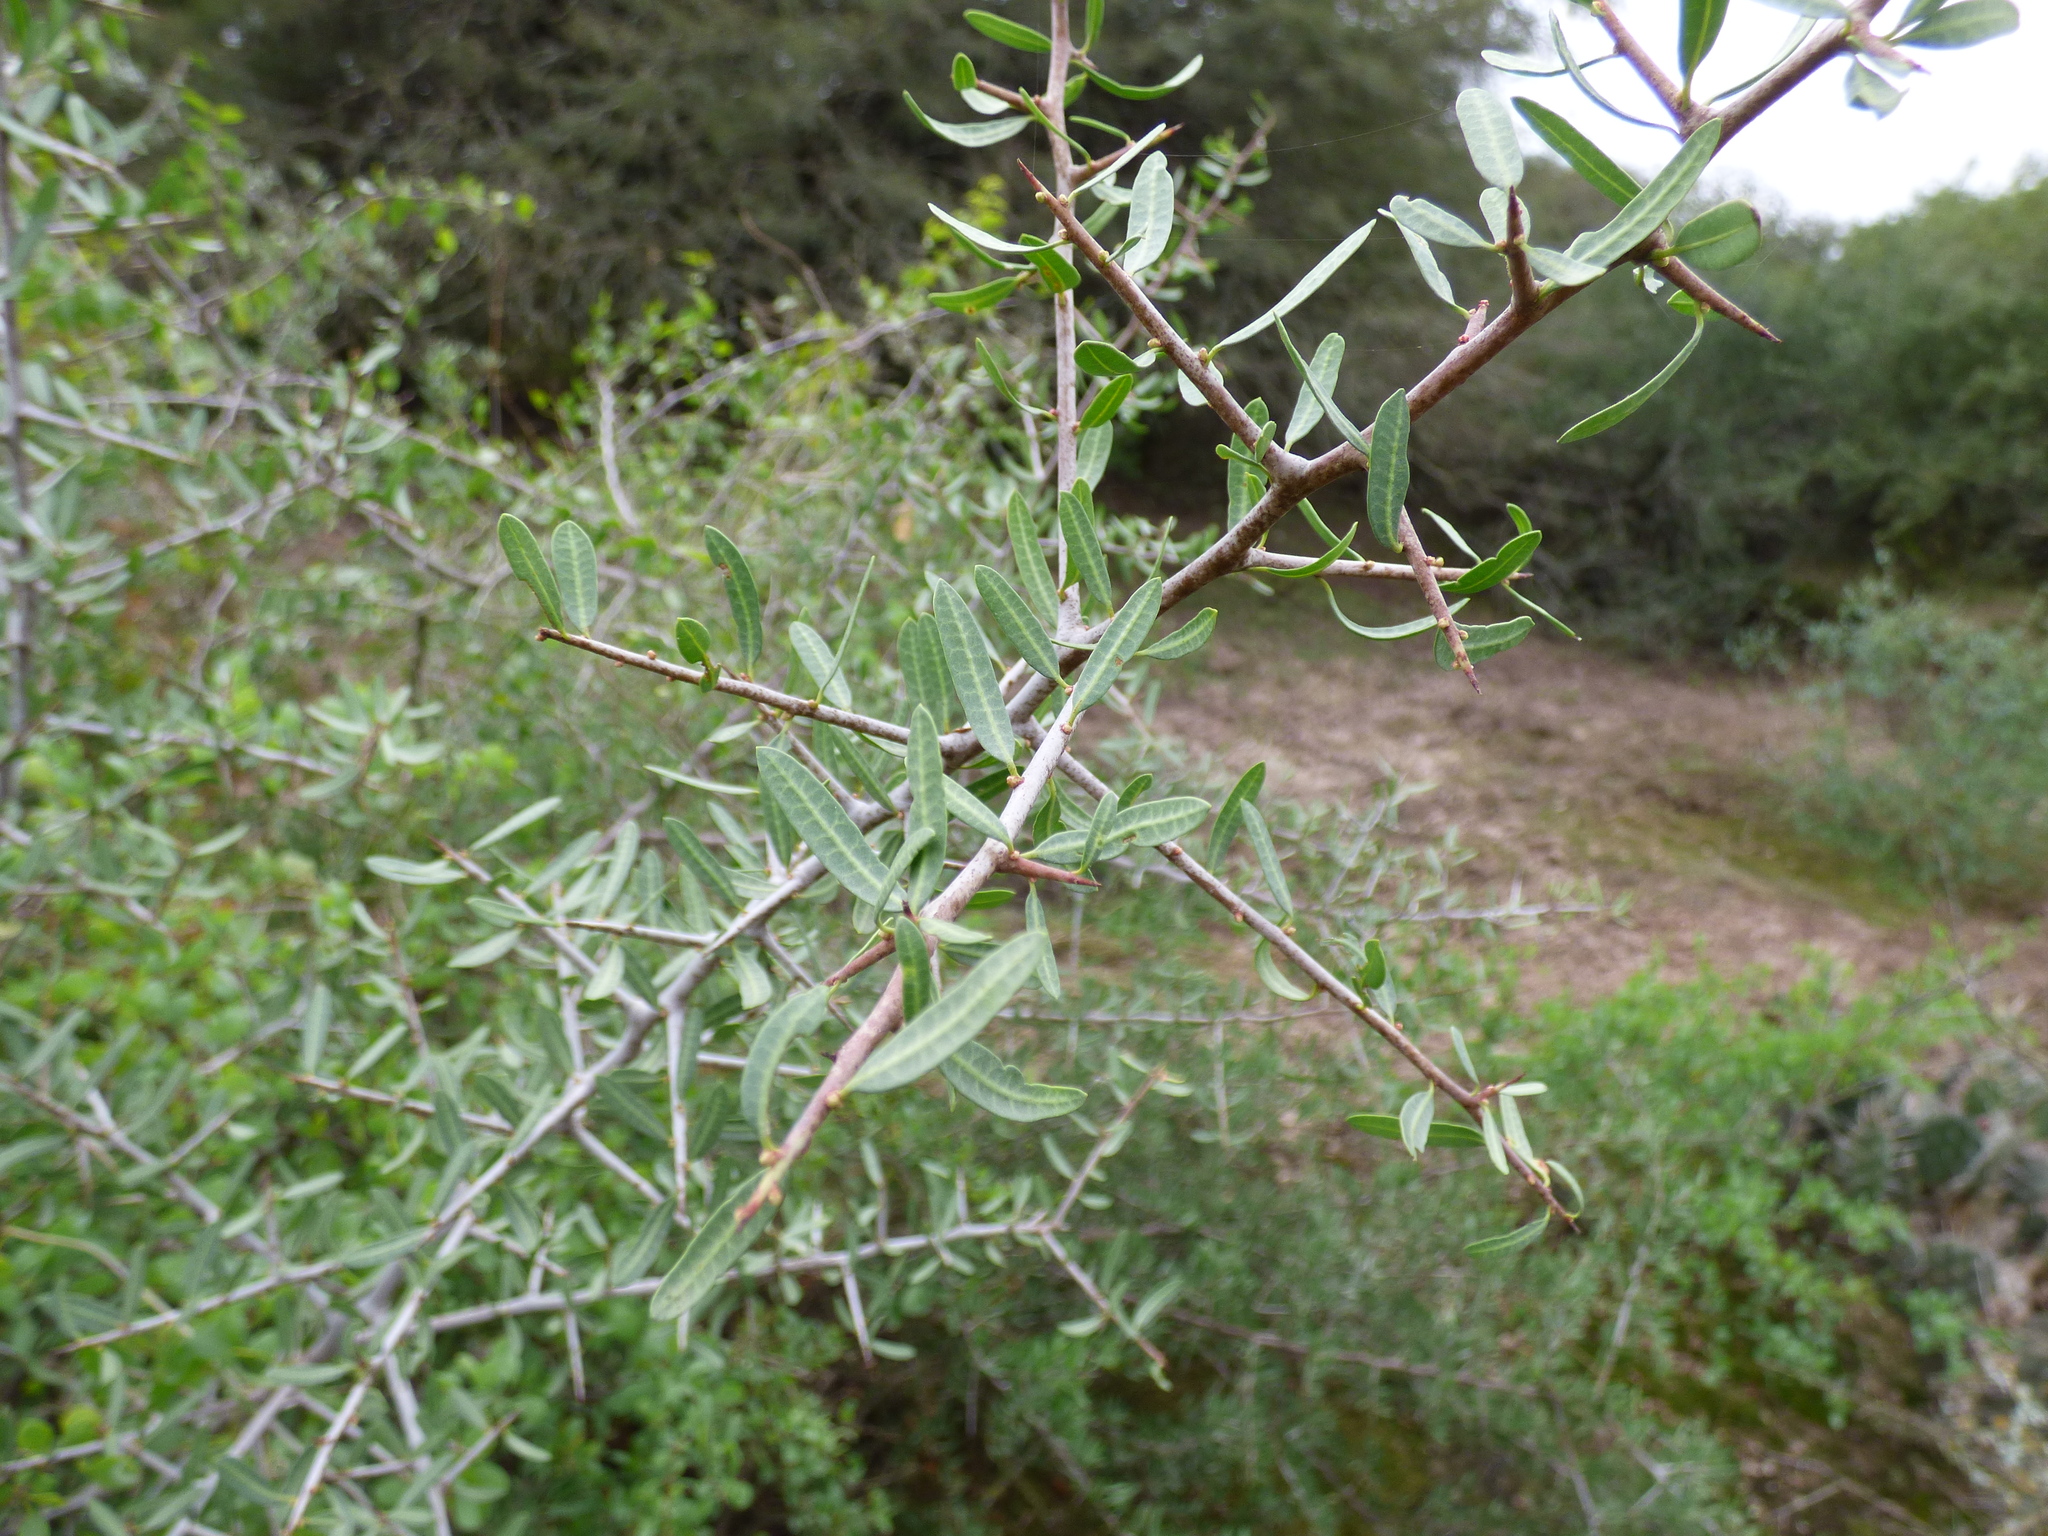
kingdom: Plantae
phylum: Tracheophyta
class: Magnoliopsida
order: Sapindales
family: Anacardiaceae
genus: Schinus
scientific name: Schinus longifolia
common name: Longleaf peppertree
